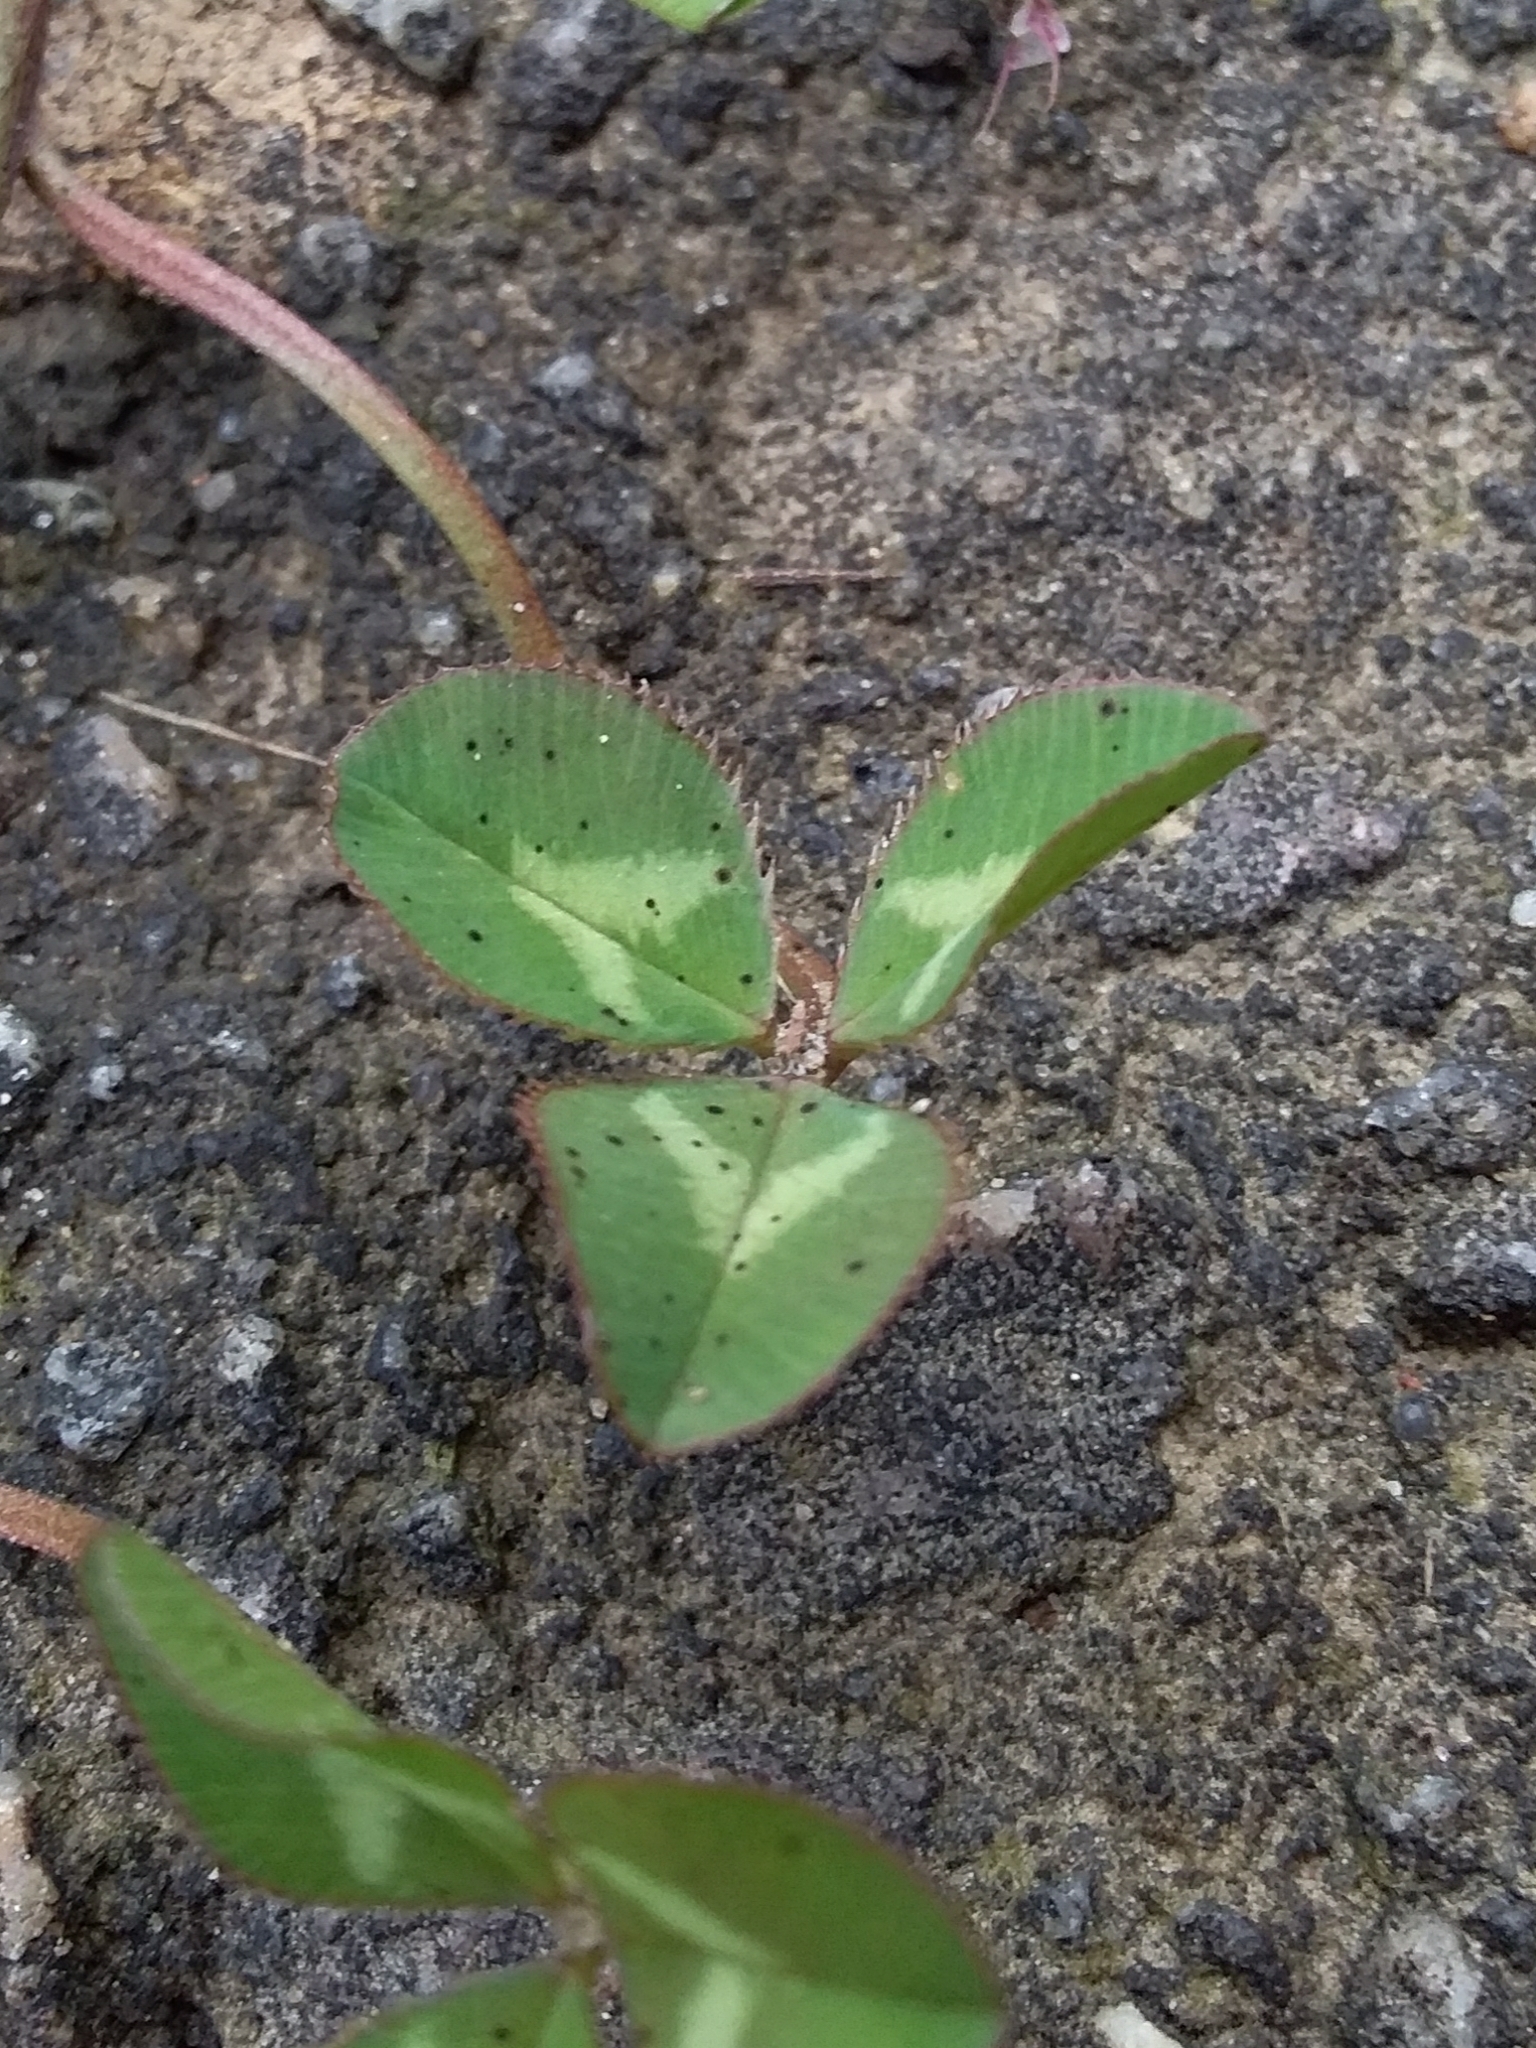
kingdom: Plantae
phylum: Tracheophyta
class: Magnoliopsida
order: Fabales
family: Fabaceae
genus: Trifolium
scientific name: Trifolium repens
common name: White clover
